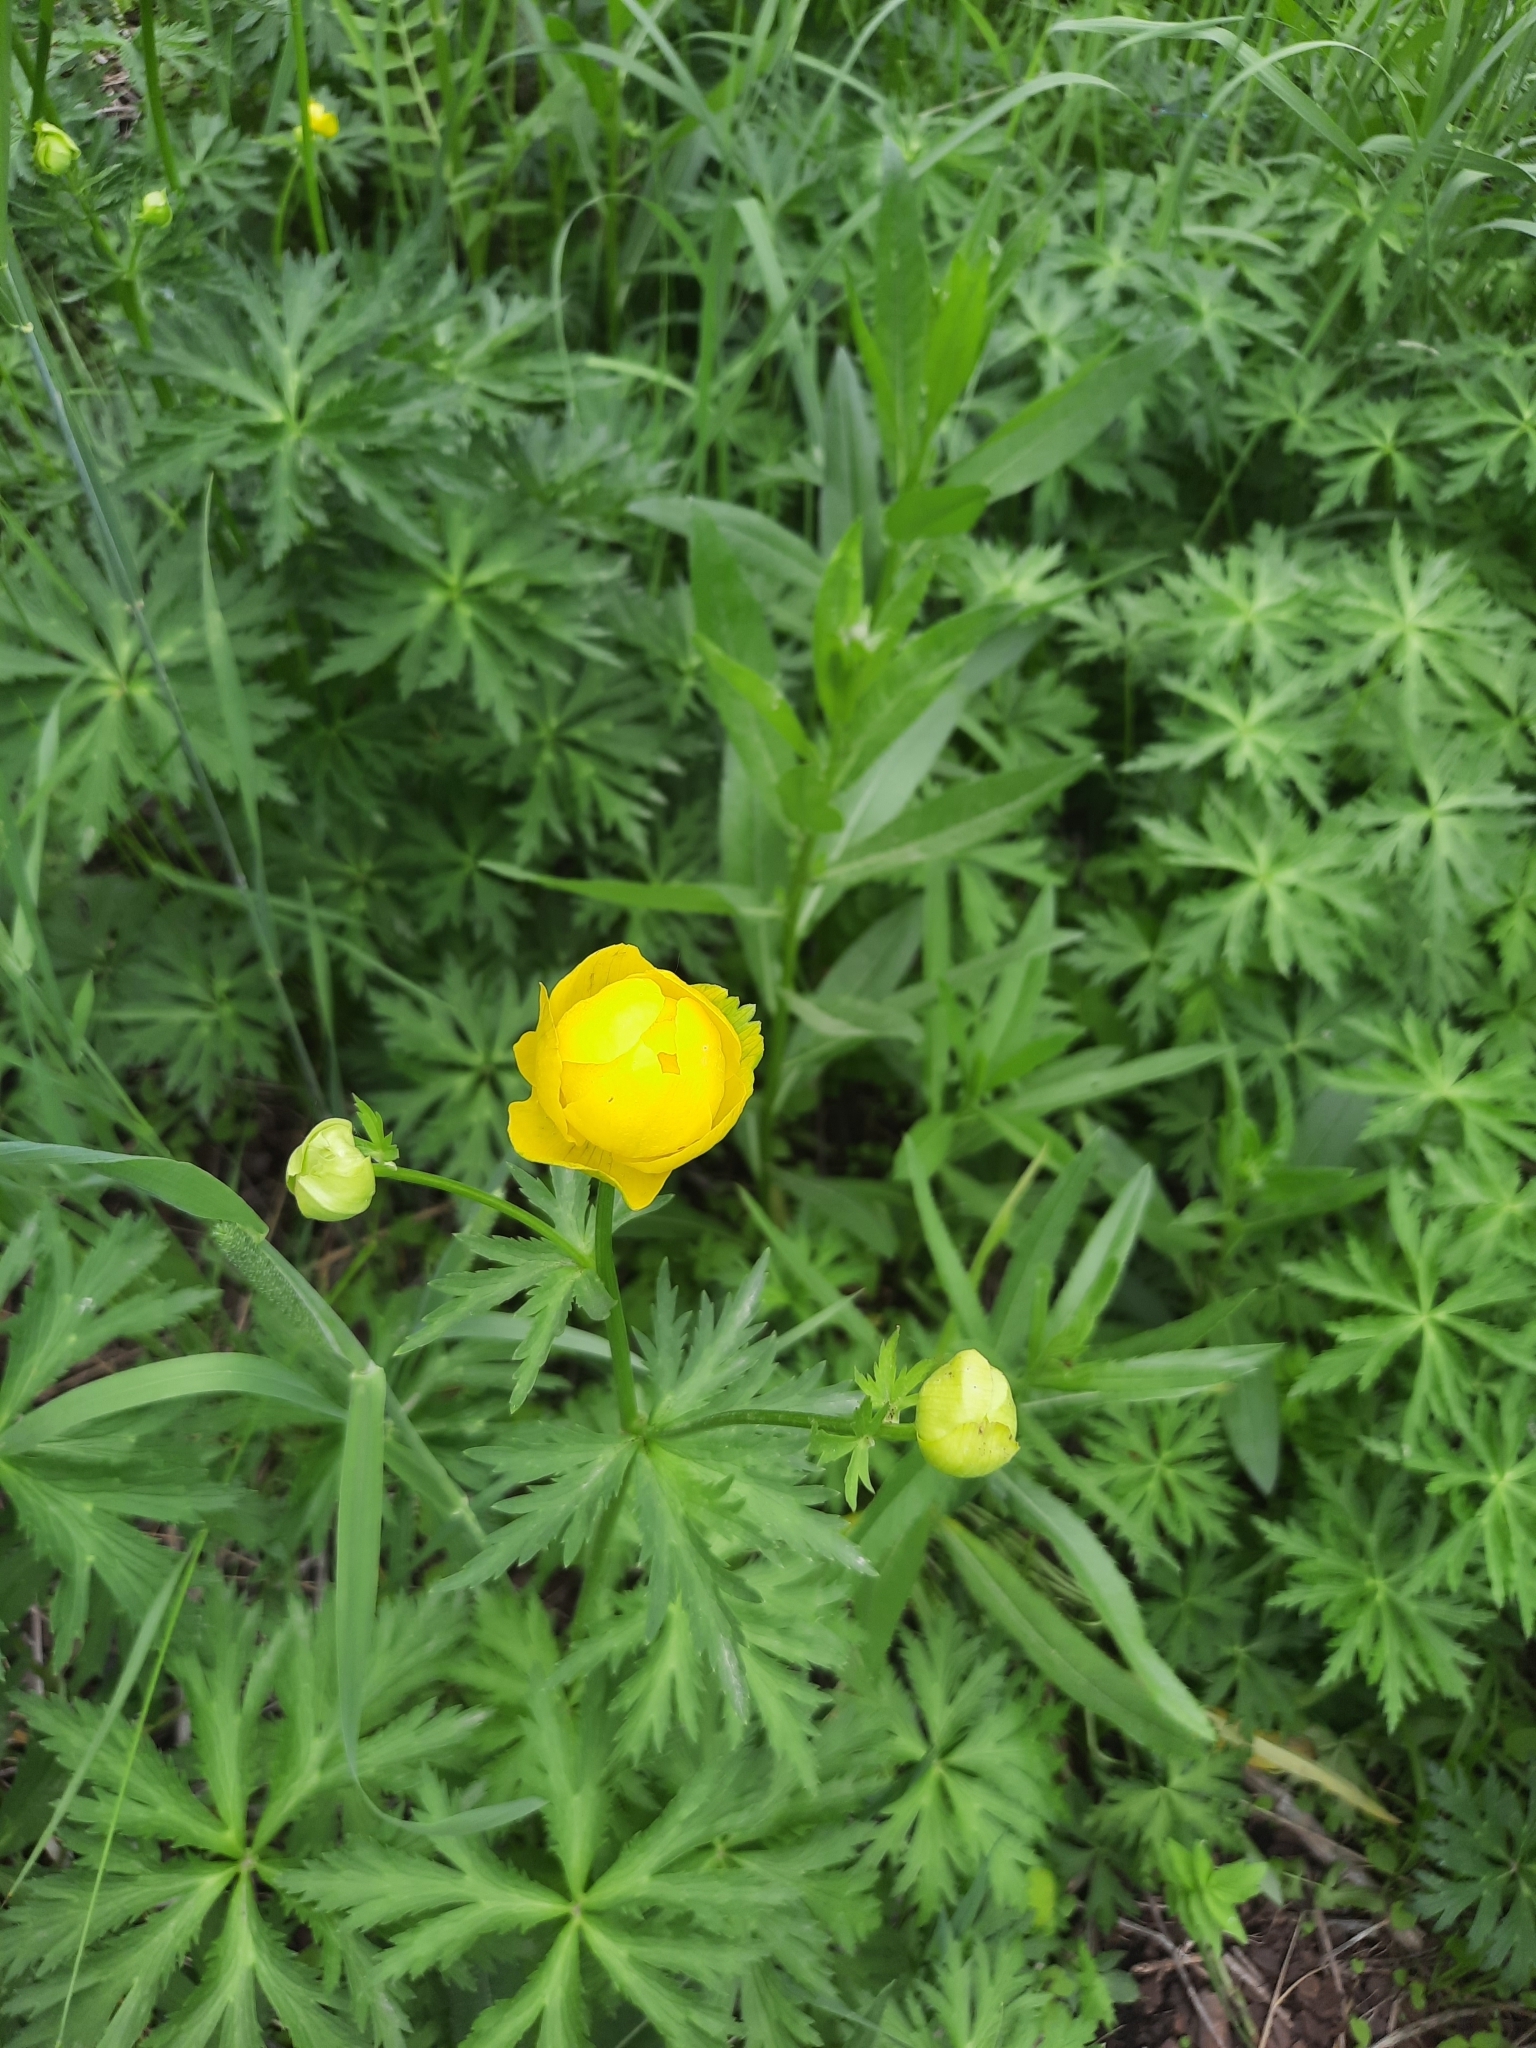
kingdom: Plantae
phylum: Tracheophyta
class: Magnoliopsida
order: Ranunculales
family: Ranunculaceae
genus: Trollius
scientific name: Trollius europaeus
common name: European globeflower
